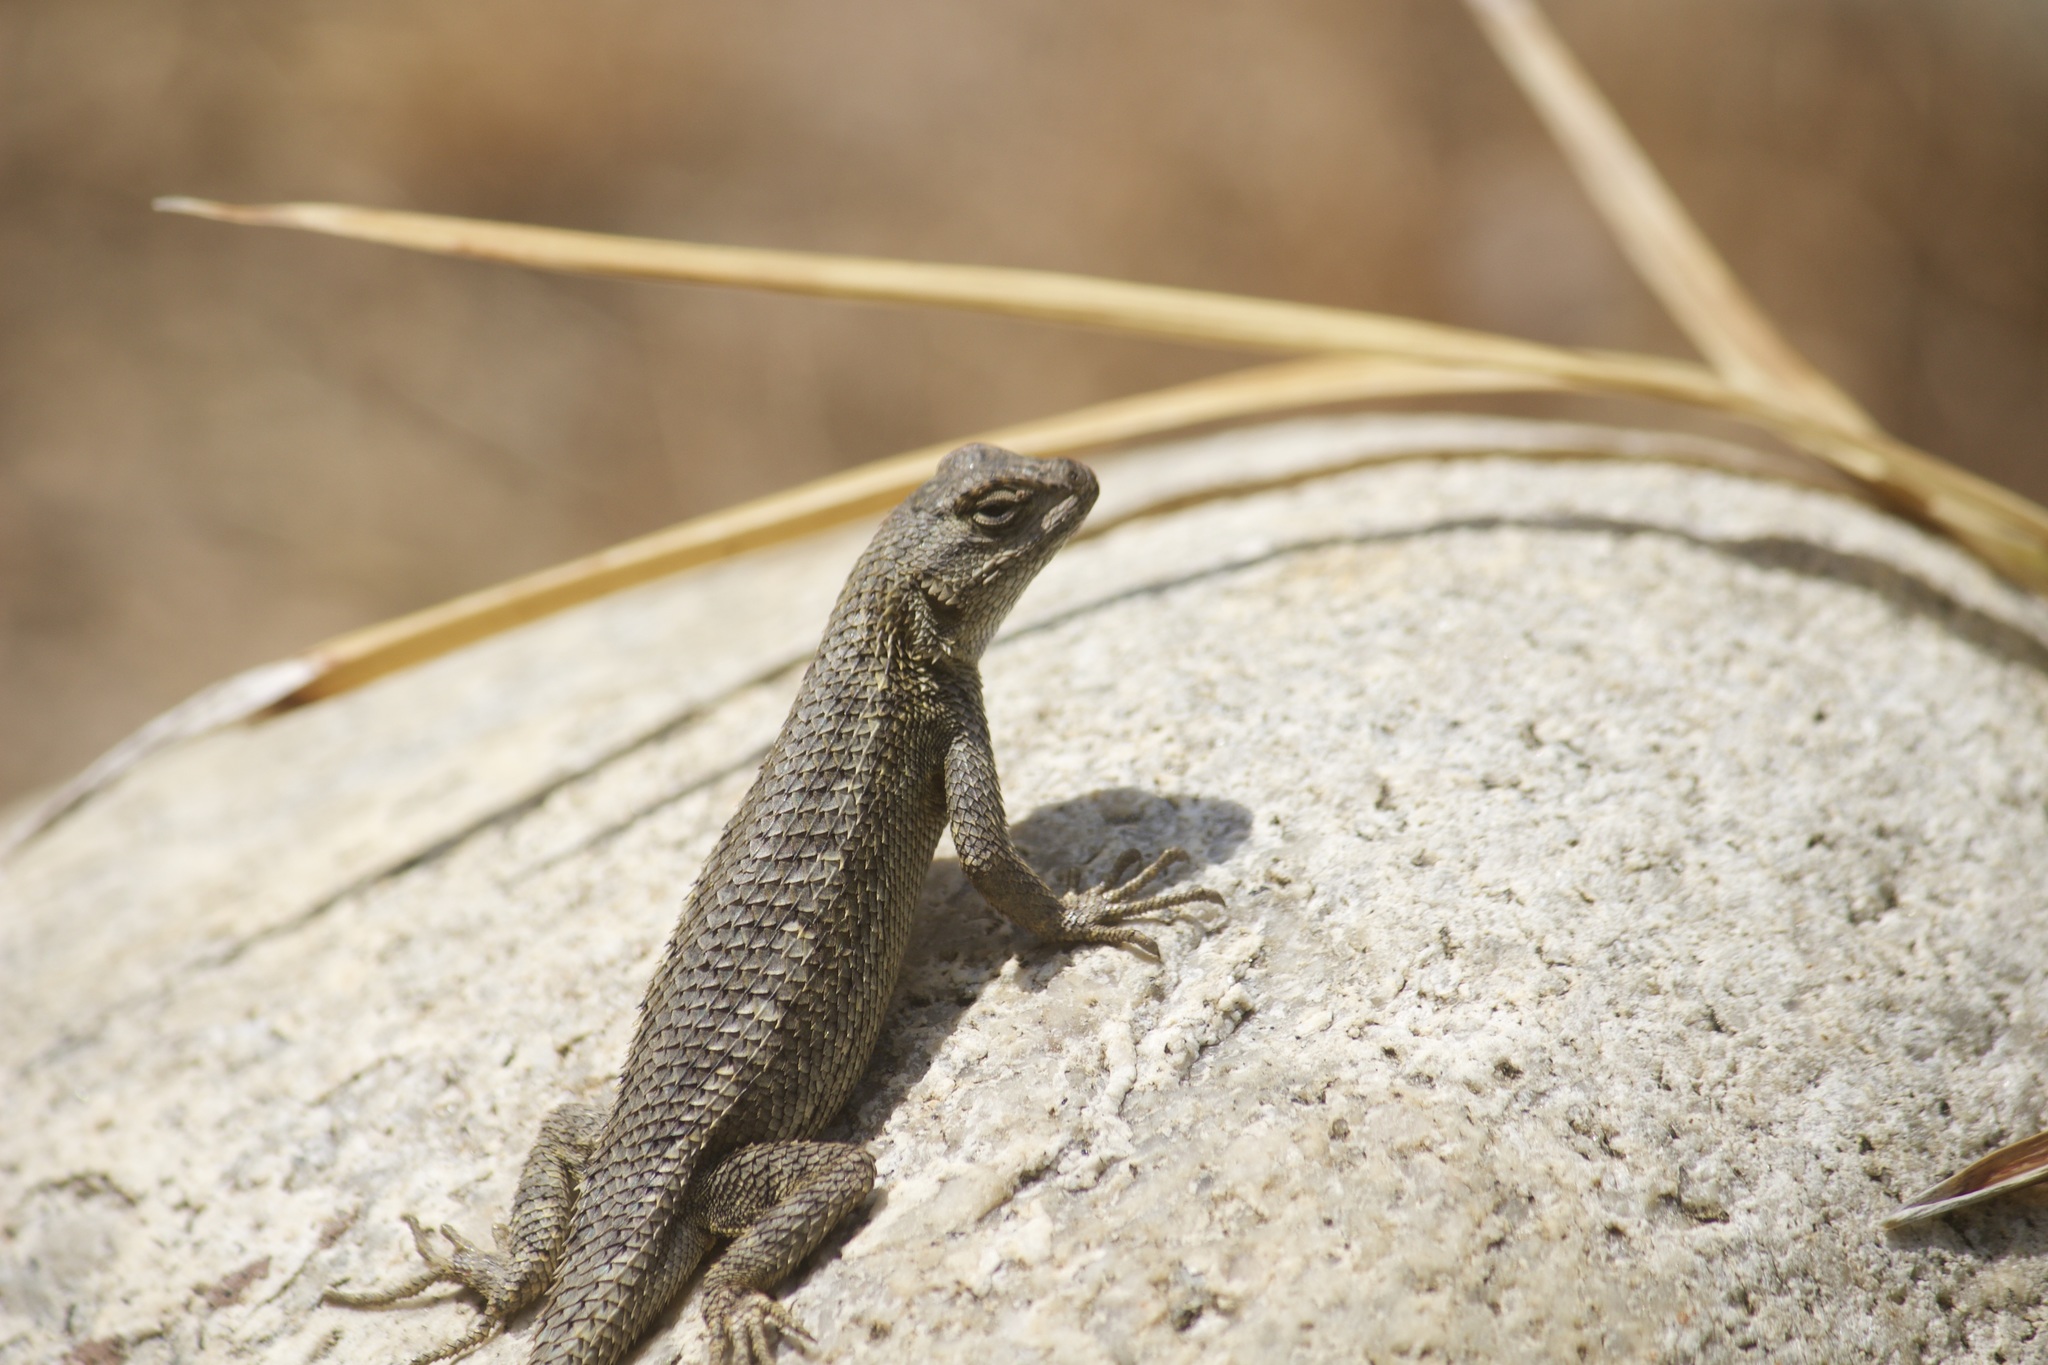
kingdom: Animalia
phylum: Chordata
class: Squamata
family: Phrynosomatidae
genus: Sceloporus
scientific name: Sceloporus occidentalis
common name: Western fence lizard
